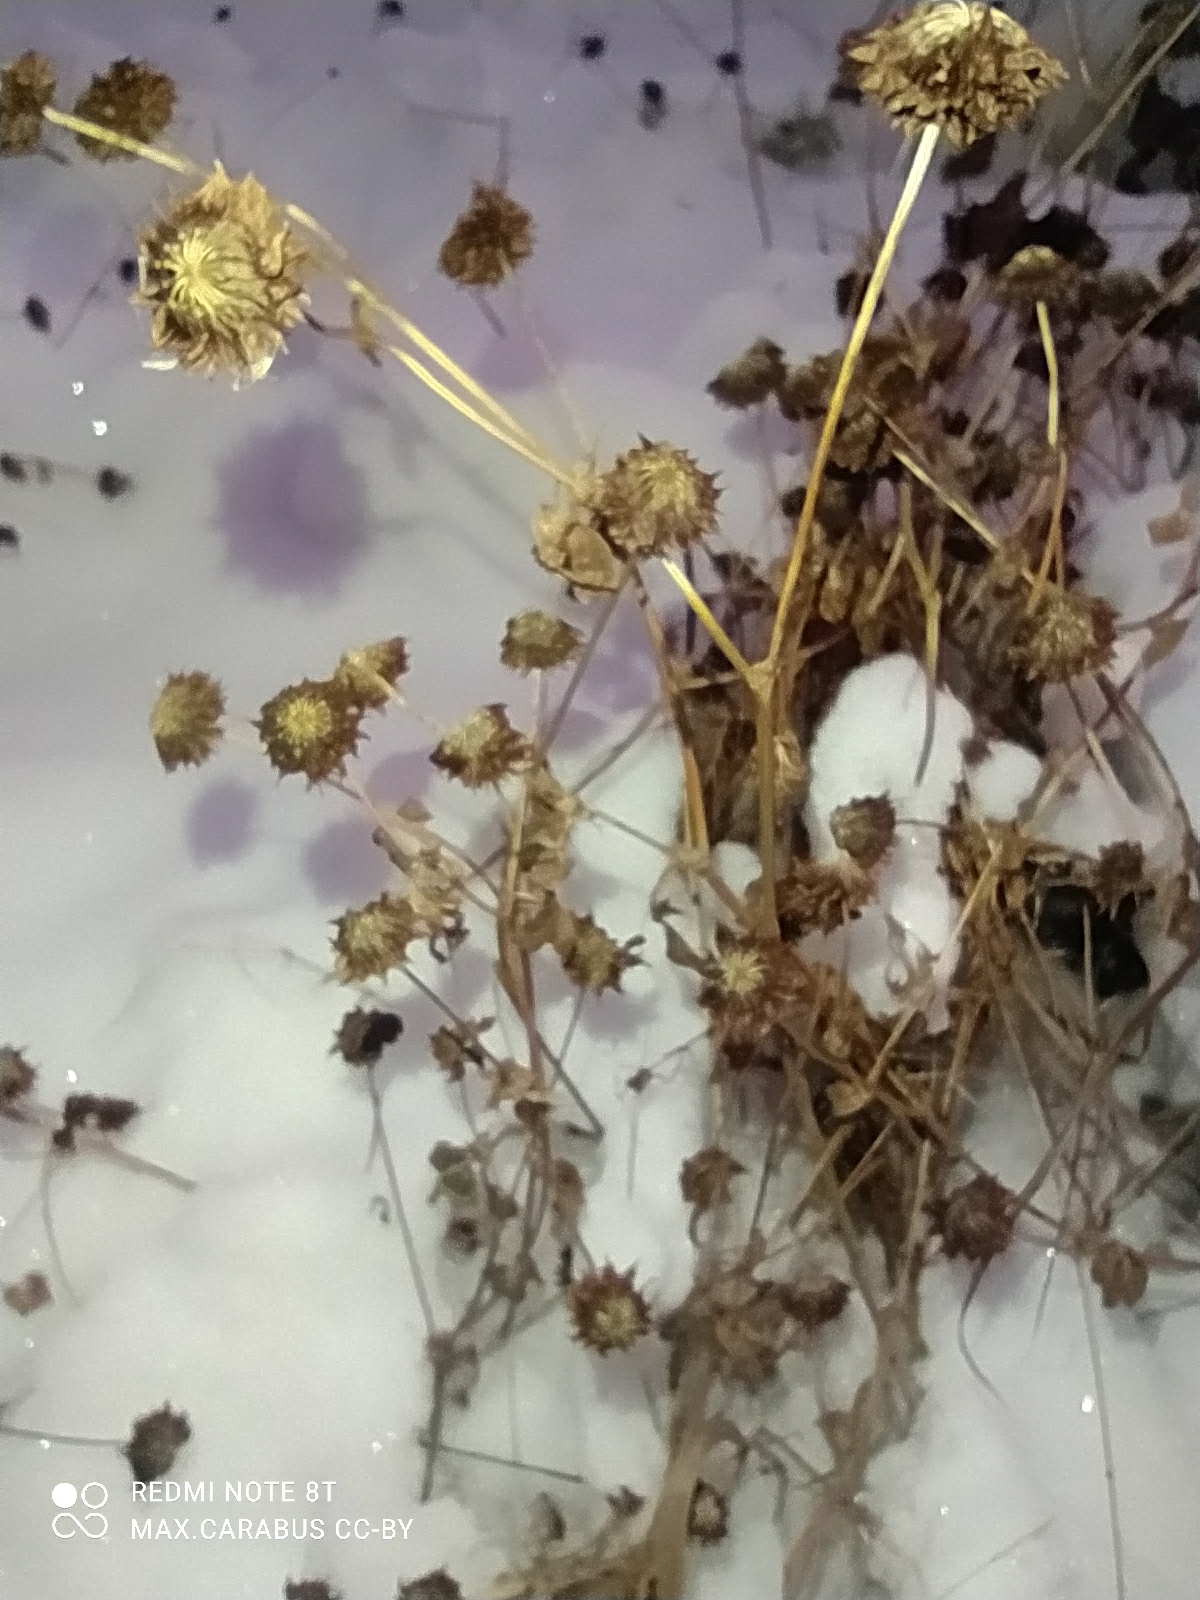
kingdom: Plantae
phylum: Tracheophyta
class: Magnoliopsida
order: Fabales
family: Fabaceae
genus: Trifolium
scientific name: Trifolium hybridum
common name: Alsike clover
